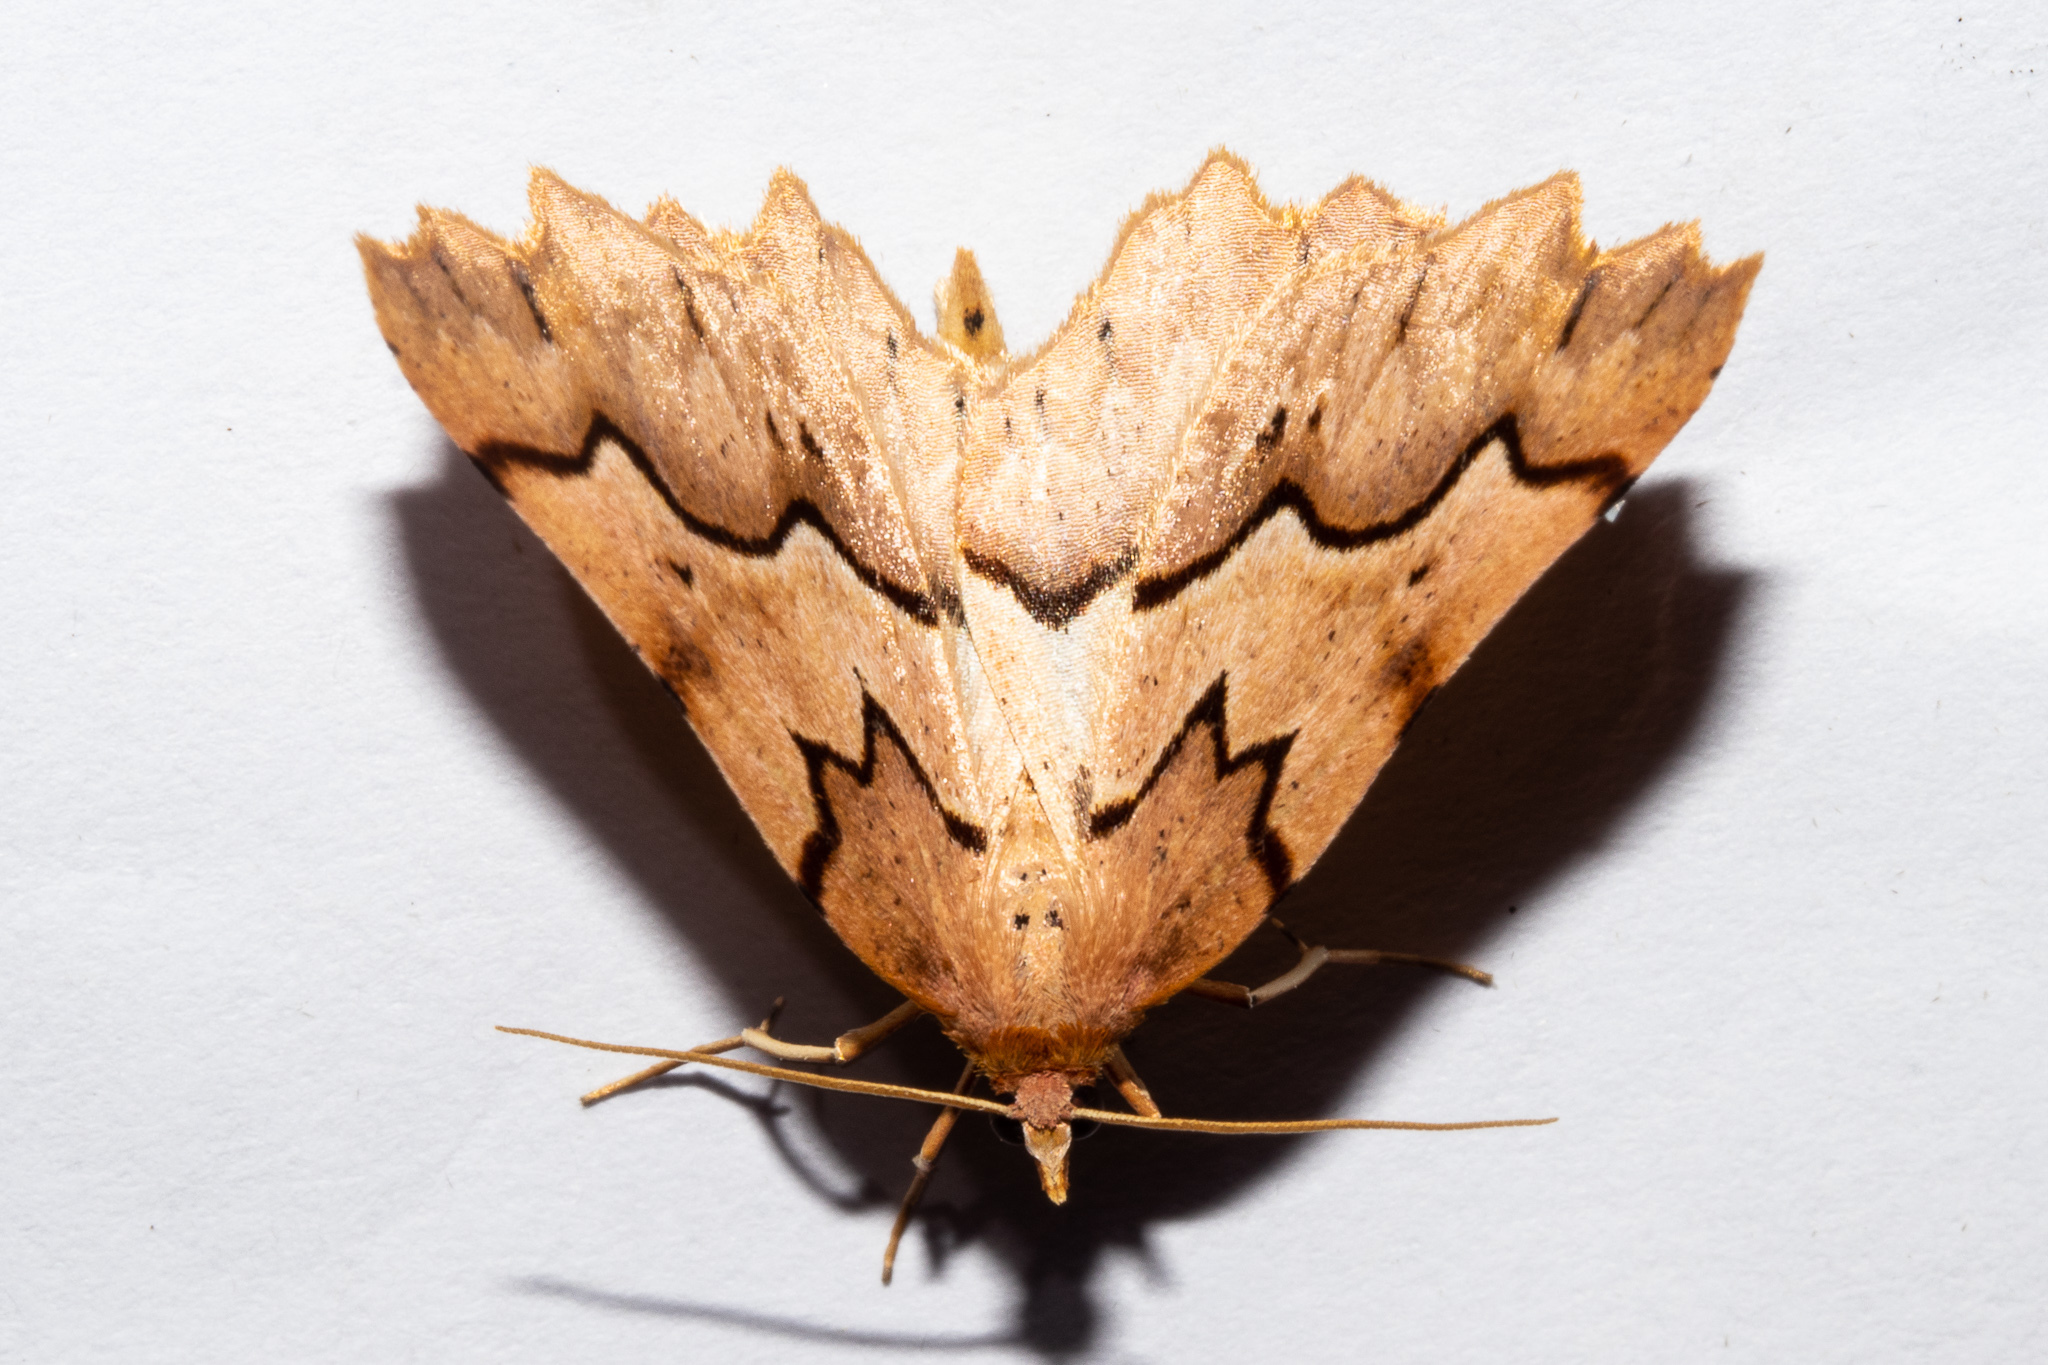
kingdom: Animalia
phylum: Arthropoda
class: Insecta
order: Lepidoptera
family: Geometridae
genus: Ischalis
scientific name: Ischalis fortinata
